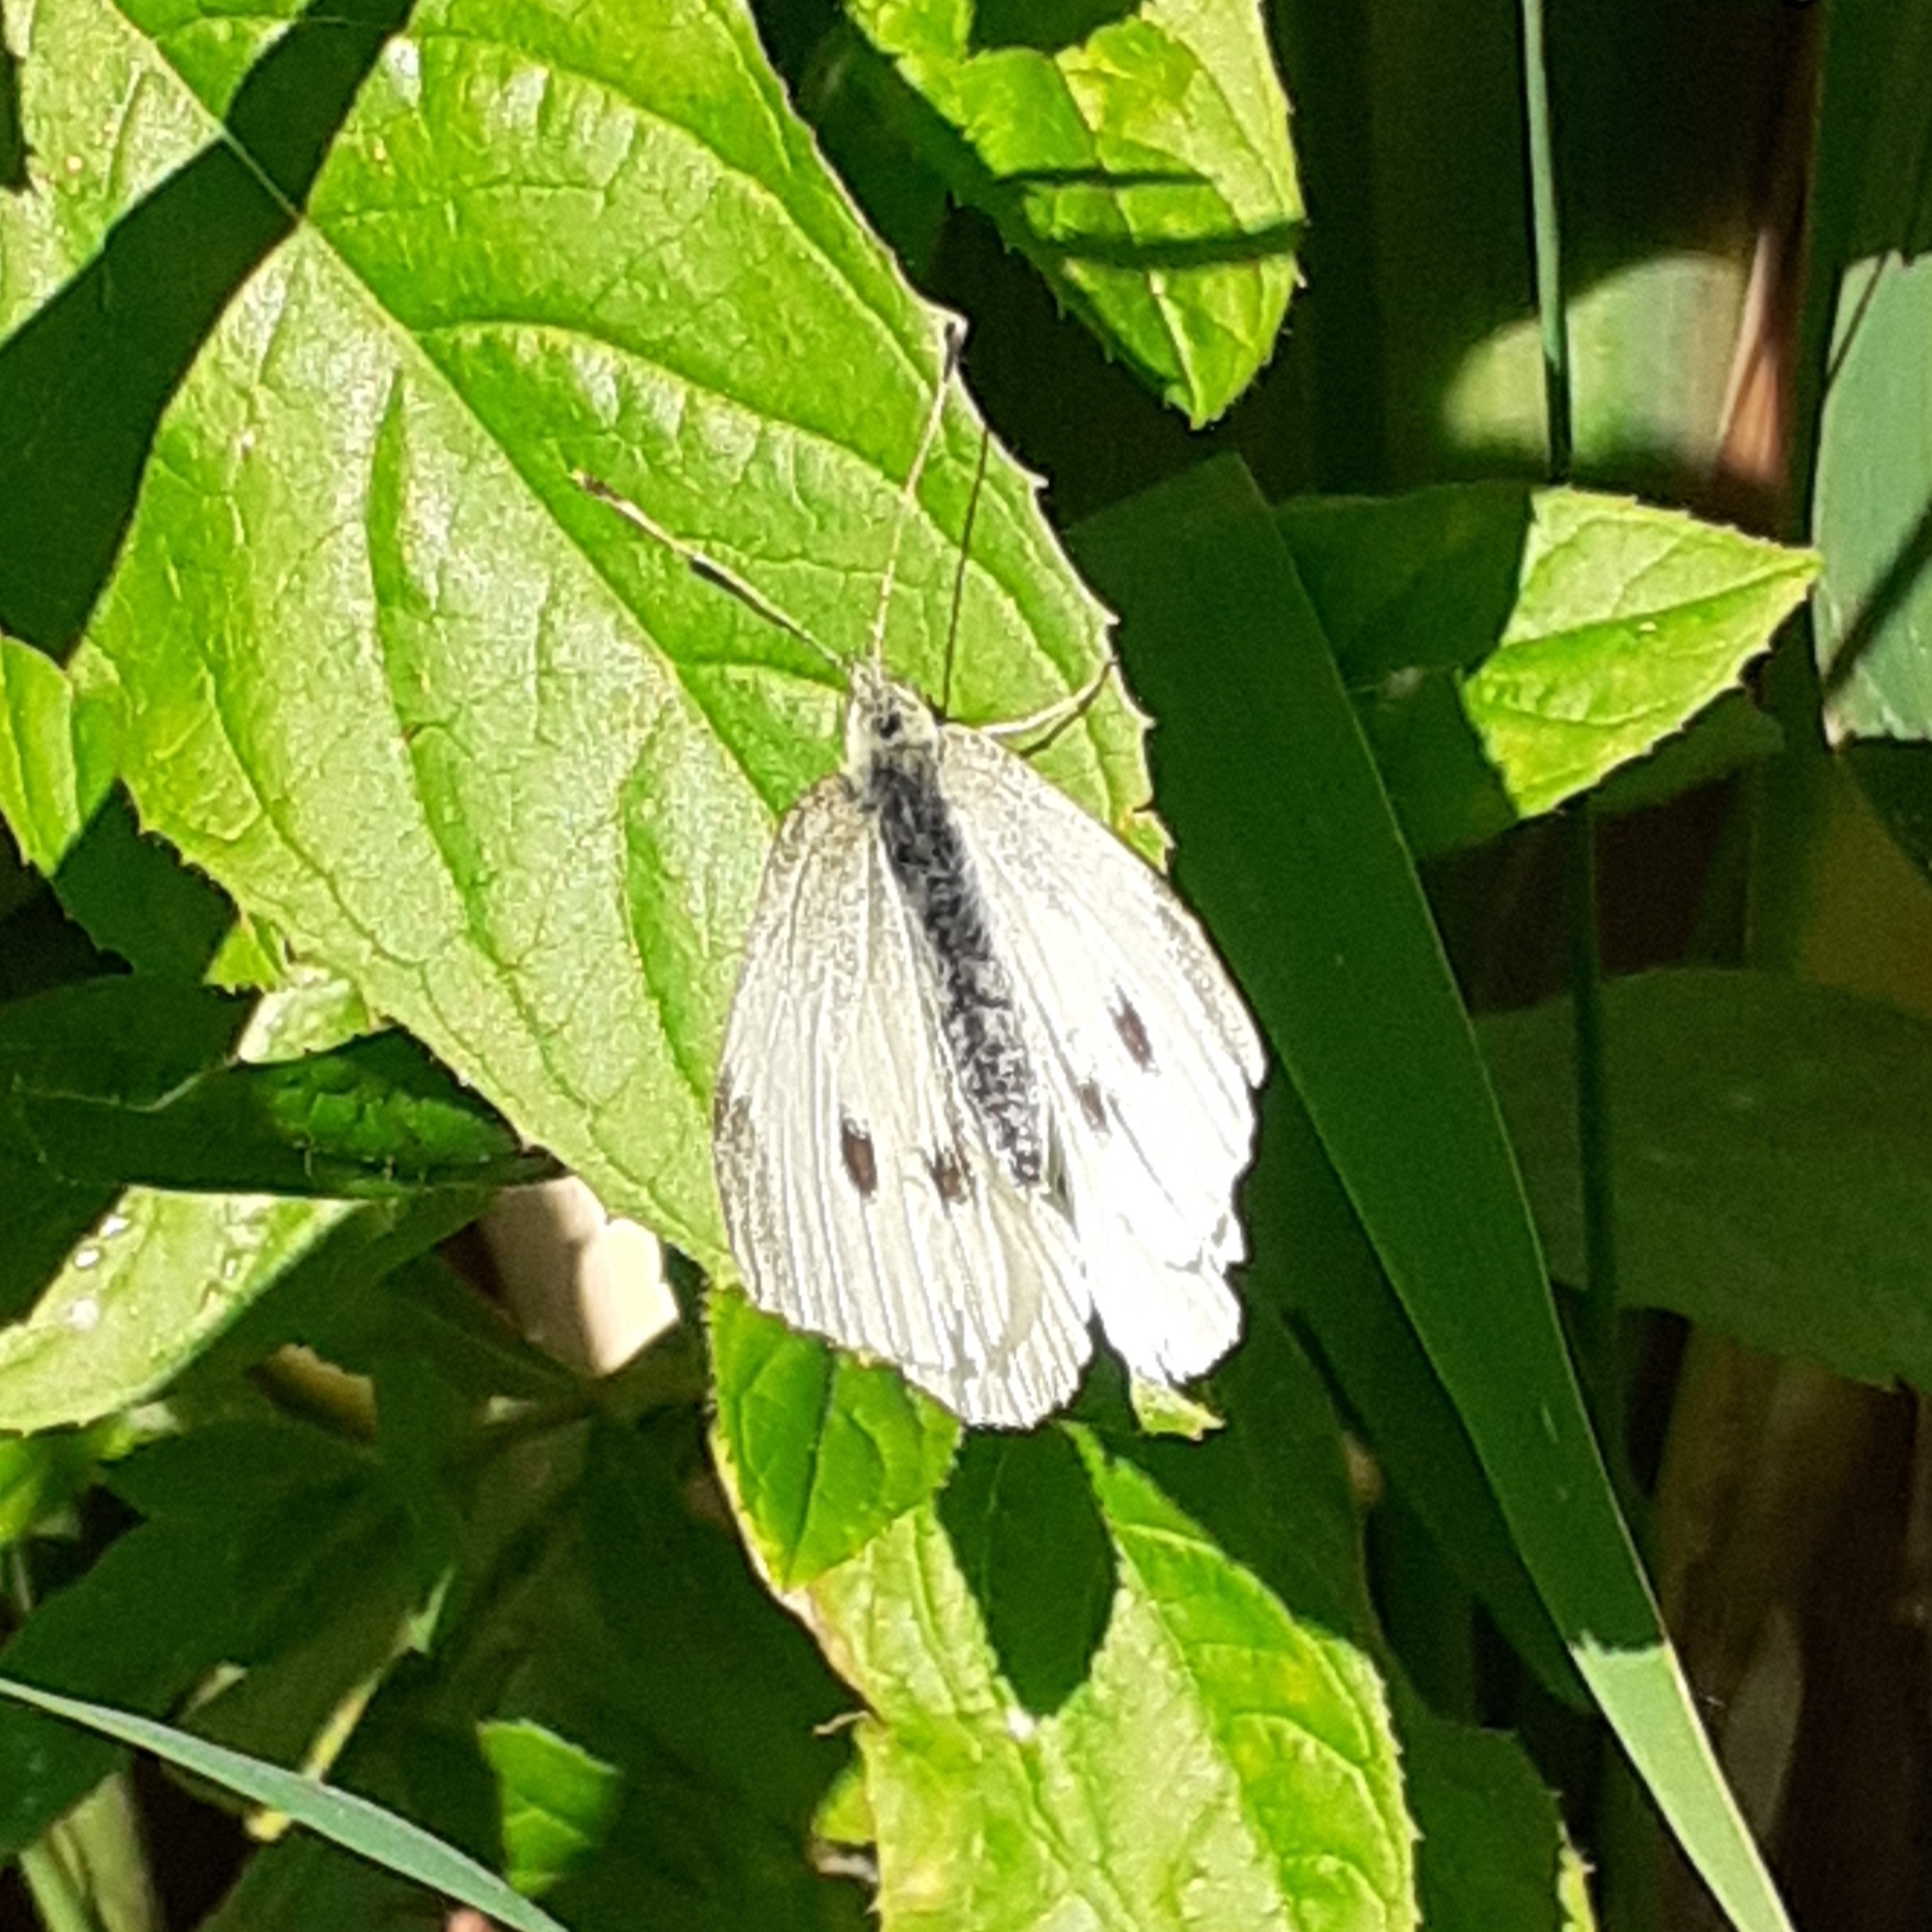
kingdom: Animalia
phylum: Arthropoda
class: Insecta
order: Lepidoptera
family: Pieridae
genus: Pieris
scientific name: Pieris rapae
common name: Small white
